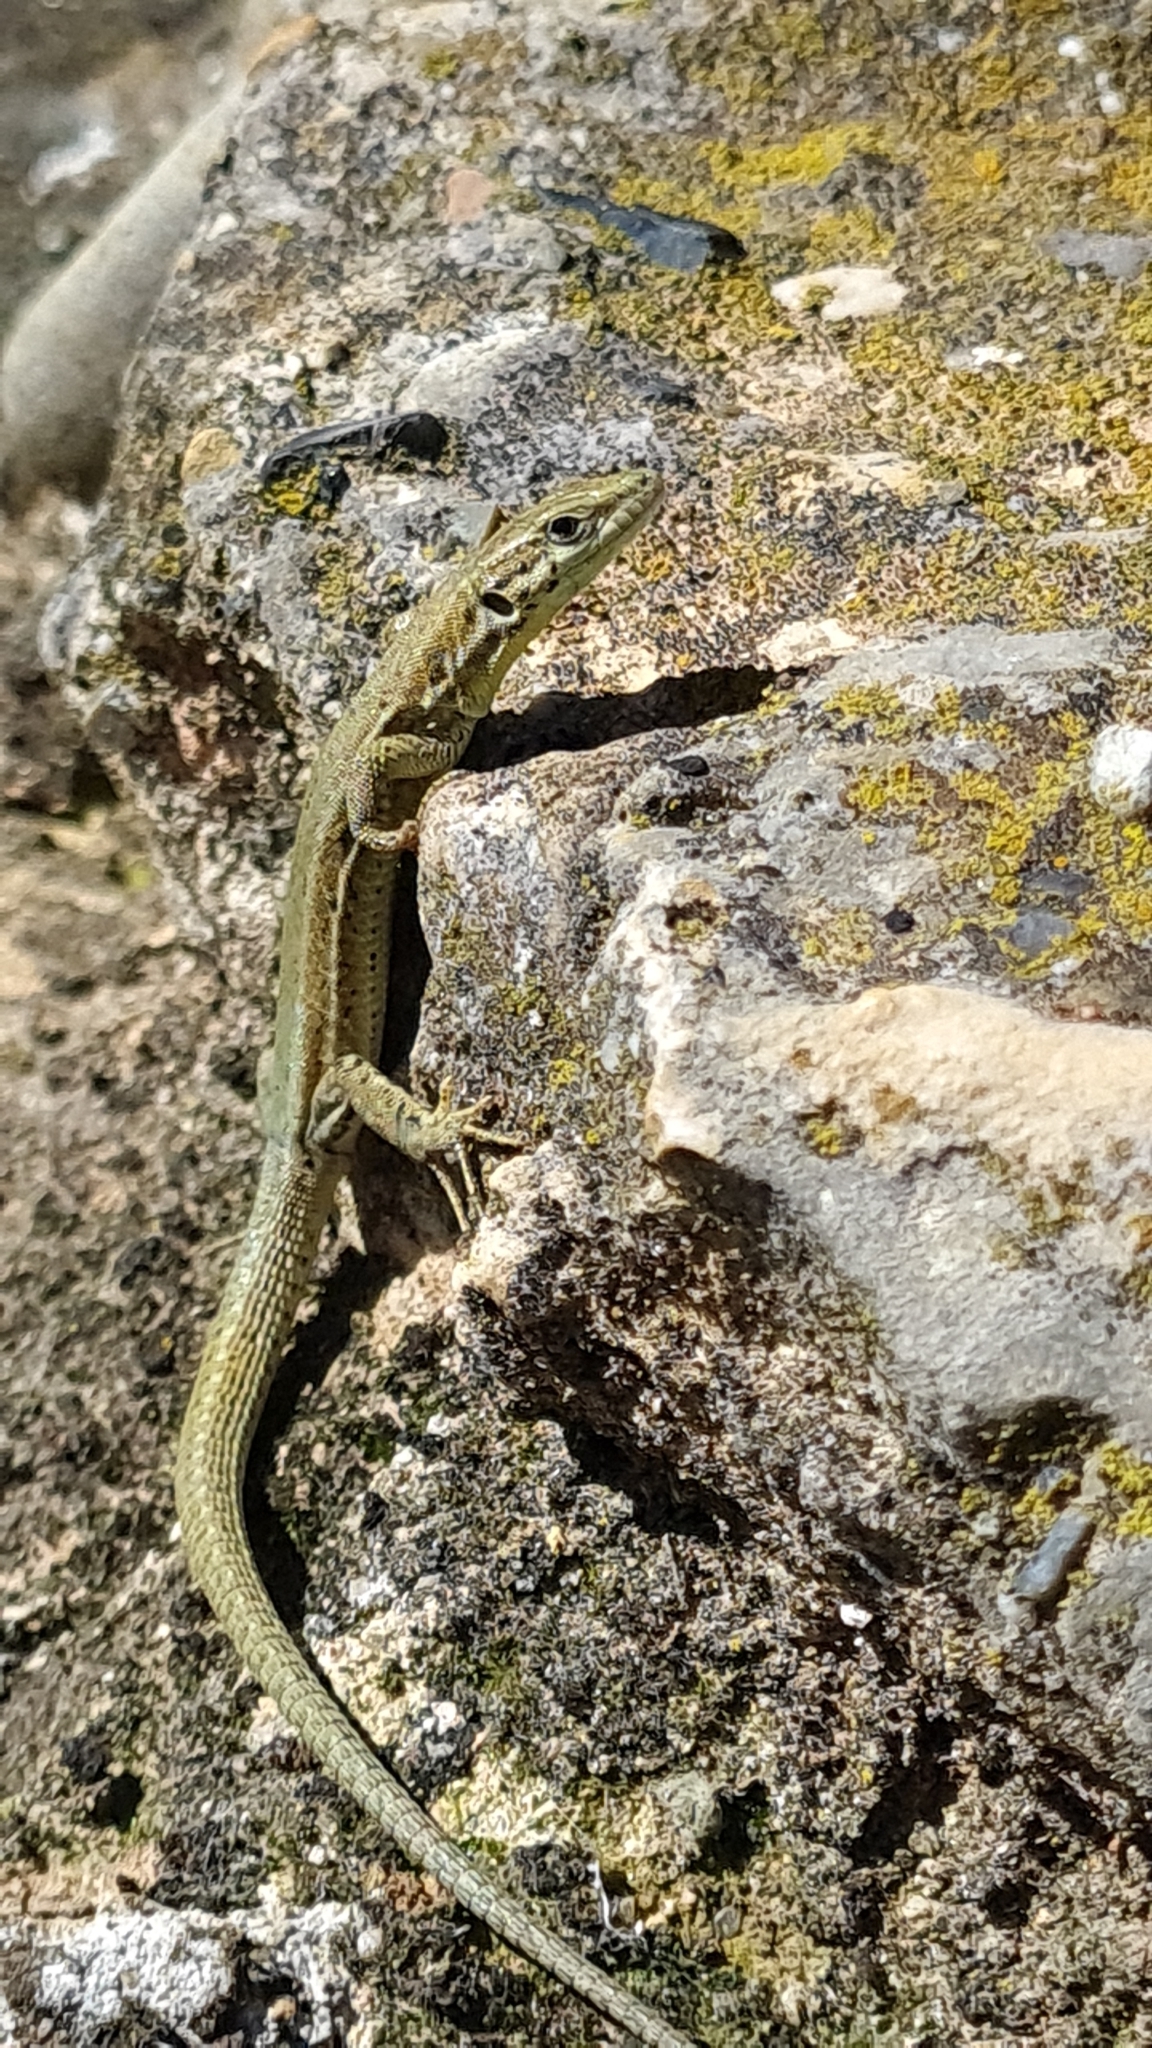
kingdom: Animalia
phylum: Chordata
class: Squamata
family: Lacertidae
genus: Podarcis
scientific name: Podarcis liolepis
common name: Catalonian wall lizard
